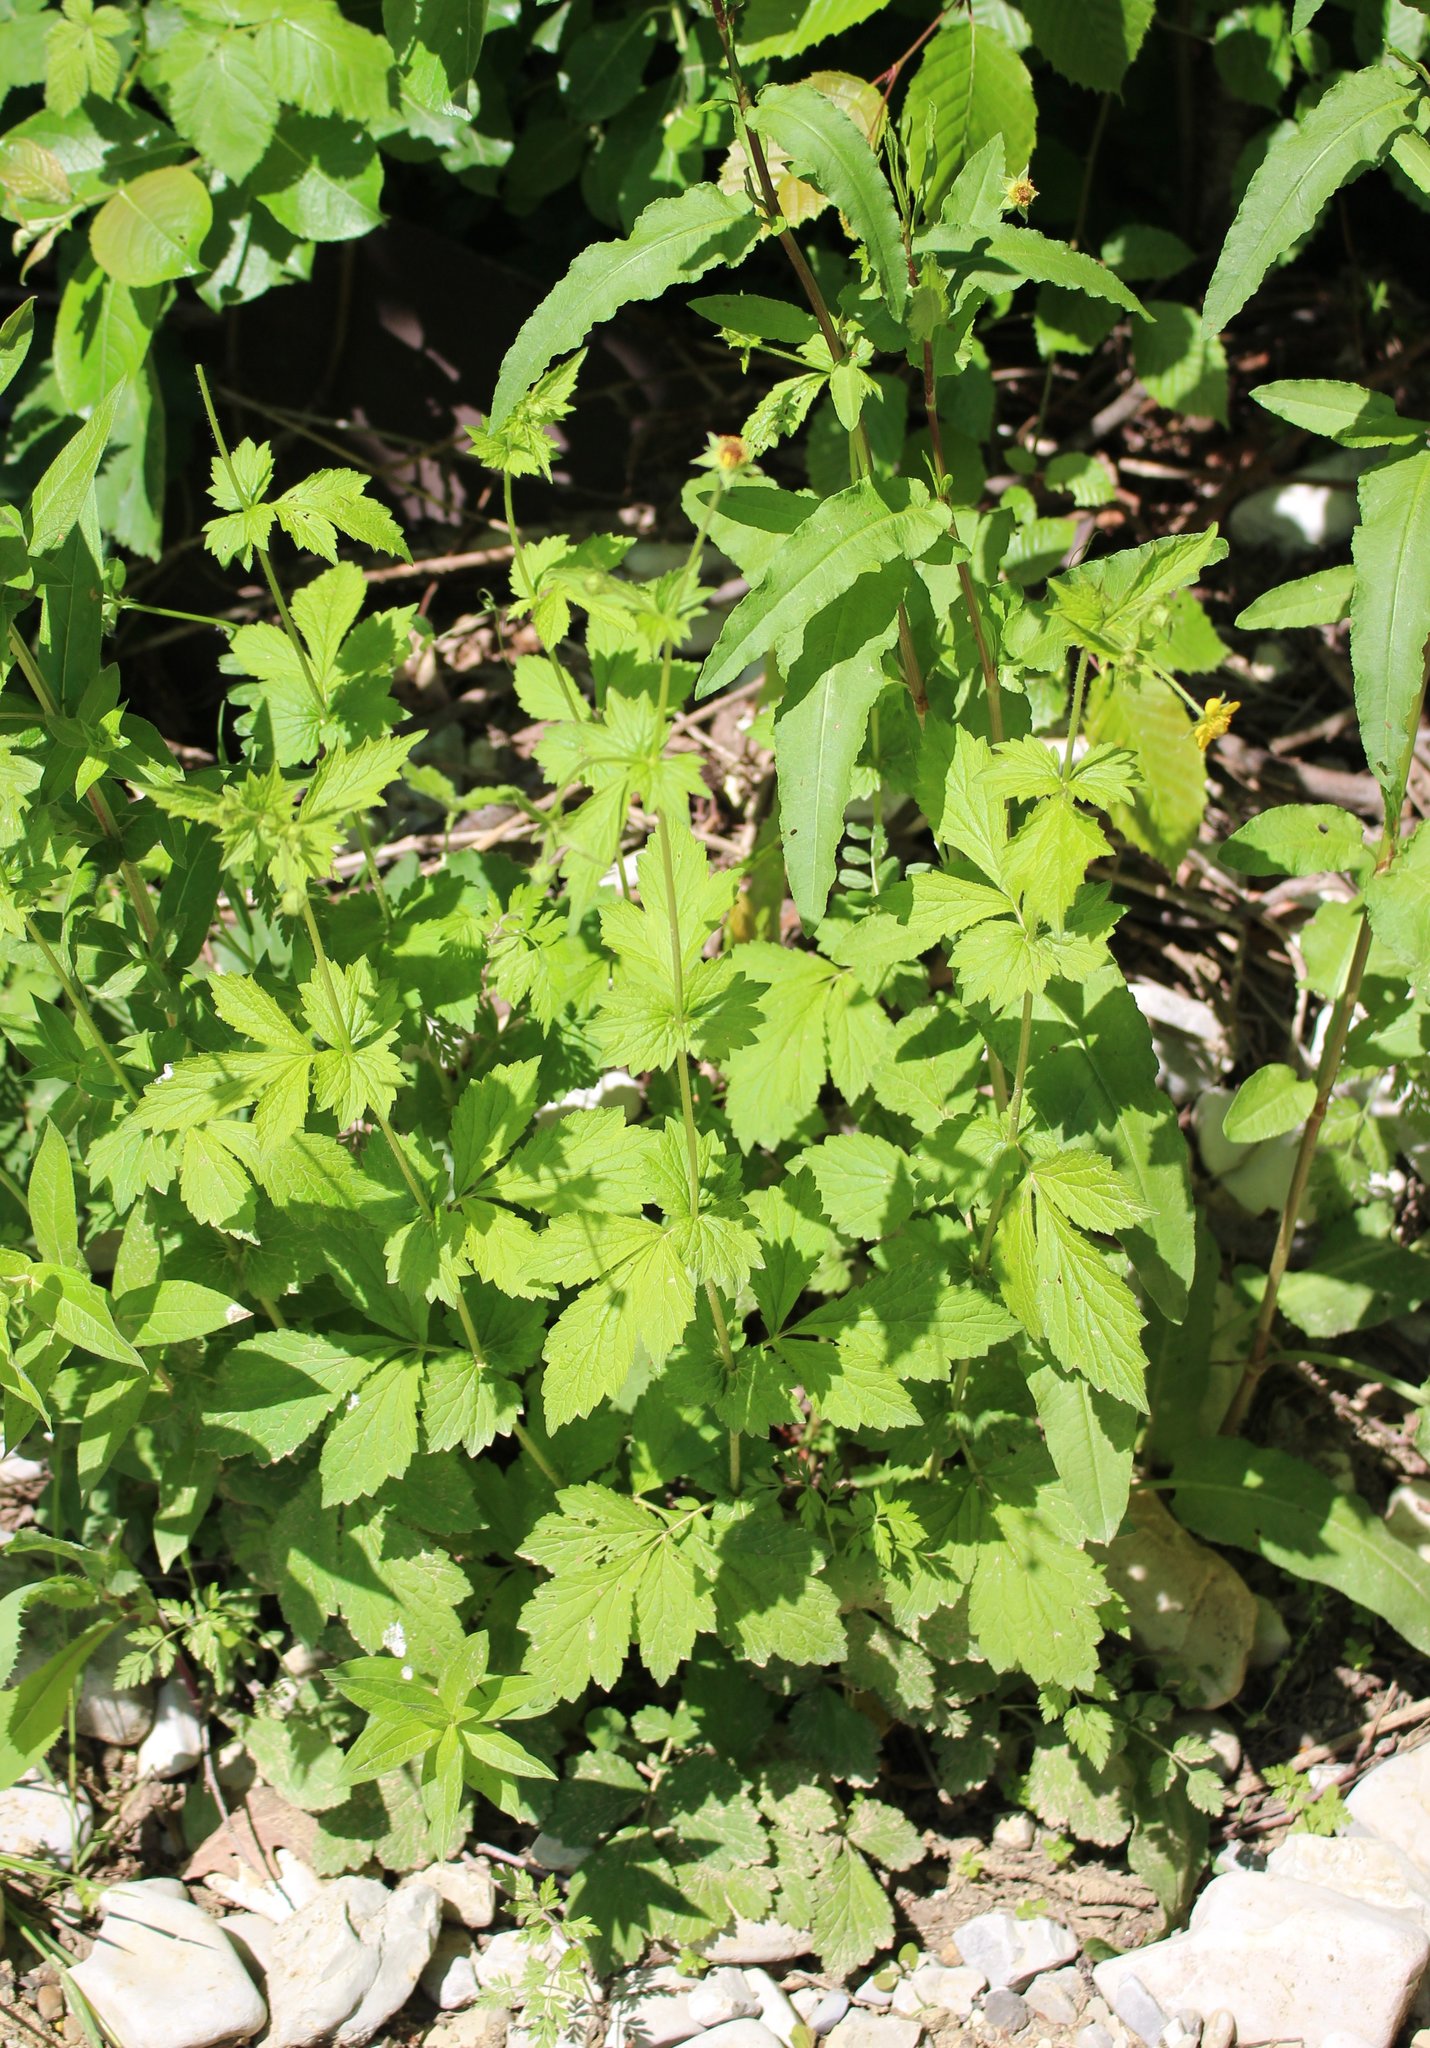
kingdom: Plantae
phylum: Tracheophyta
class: Magnoliopsida
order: Rosales
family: Rosaceae
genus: Geum
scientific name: Geum urbanum
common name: Wood avens
